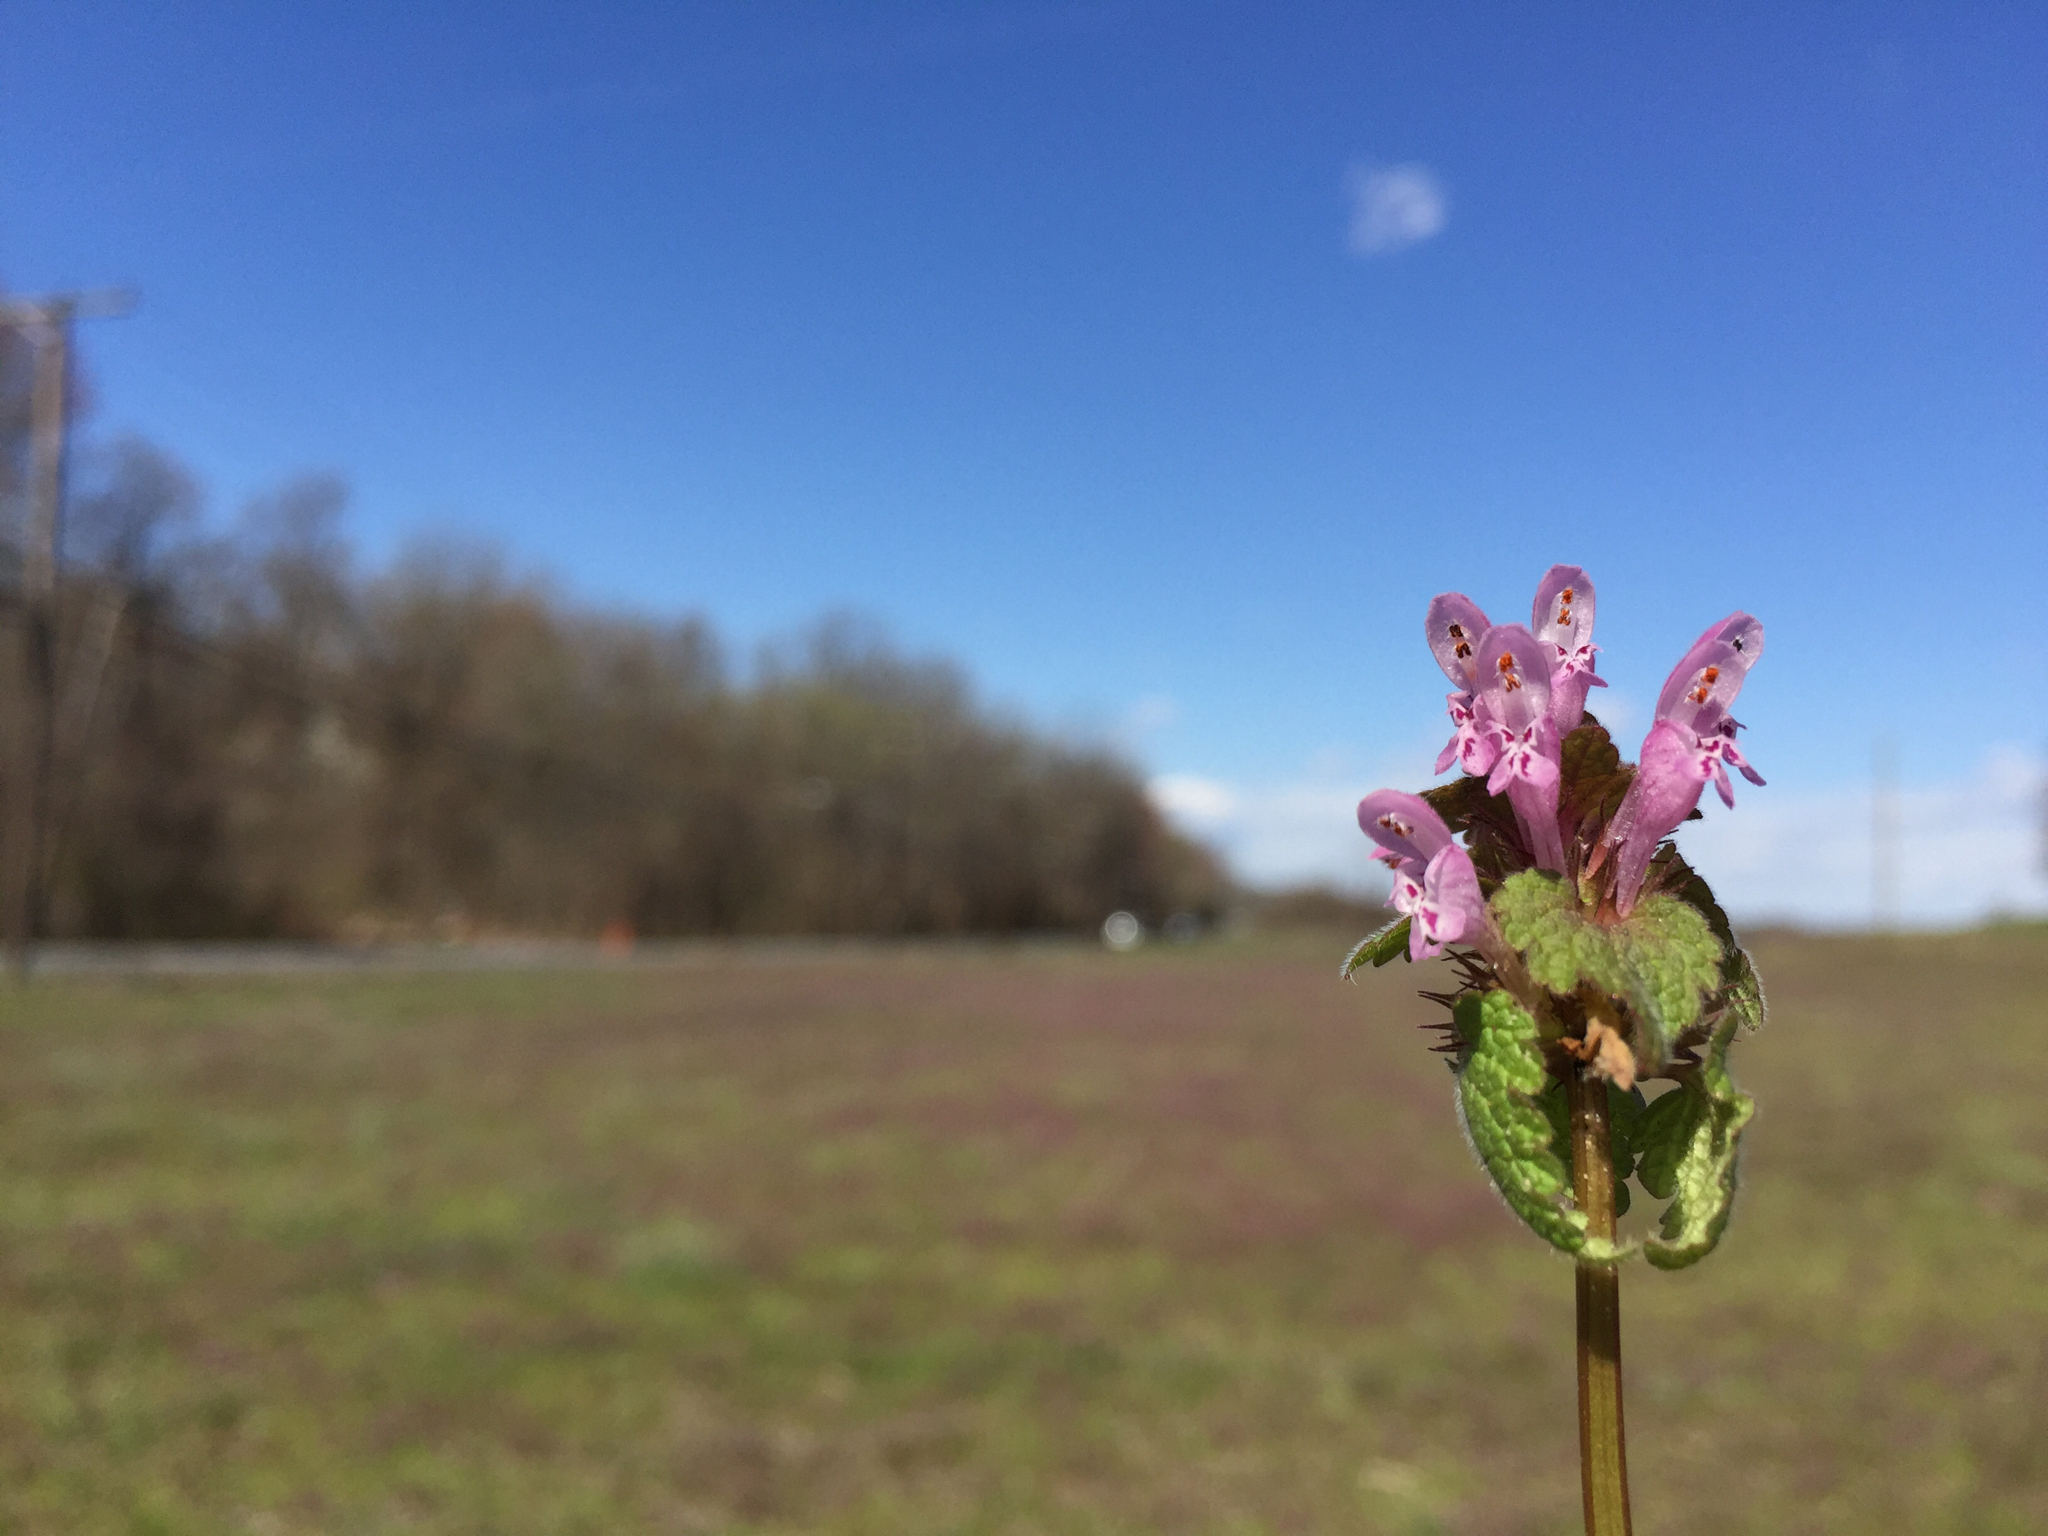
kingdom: Plantae
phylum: Tracheophyta
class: Magnoliopsida
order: Lamiales
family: Lamiaceae
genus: Lamium
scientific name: Lamium amplexicaule
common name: Henbit dead-nettle
